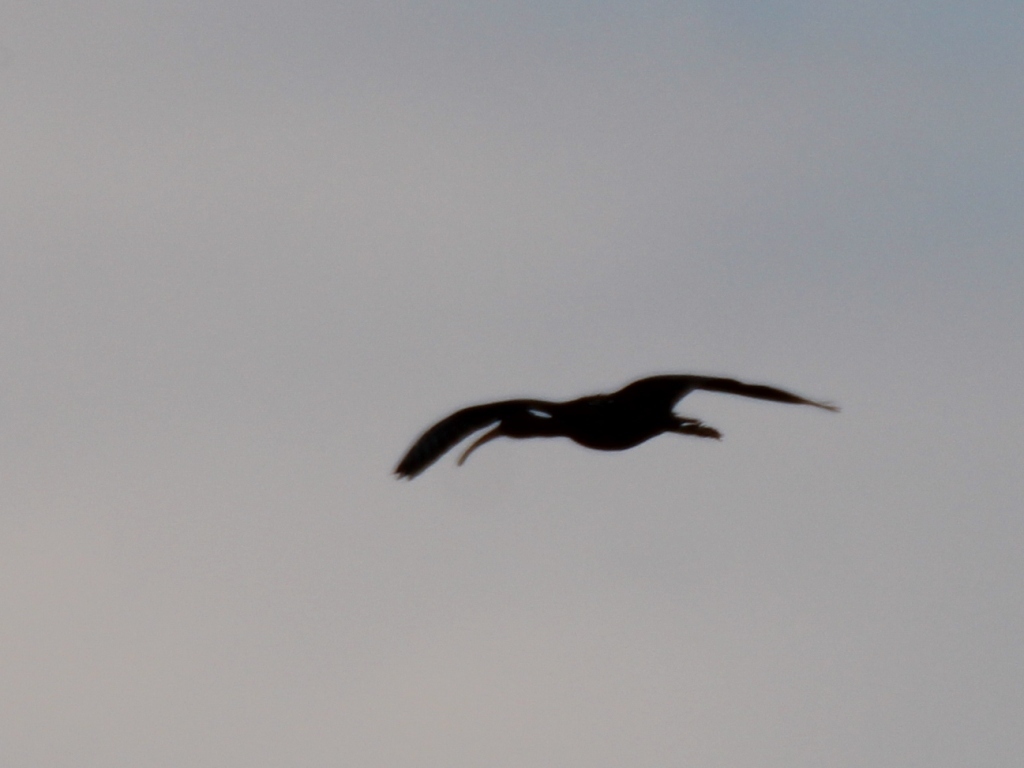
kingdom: Animalia
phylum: Chordata
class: Aves
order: Pelecaniformes
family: Threskiornithidae
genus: Plegadis
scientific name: Plegadis falcinellus
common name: Glossy ibis
